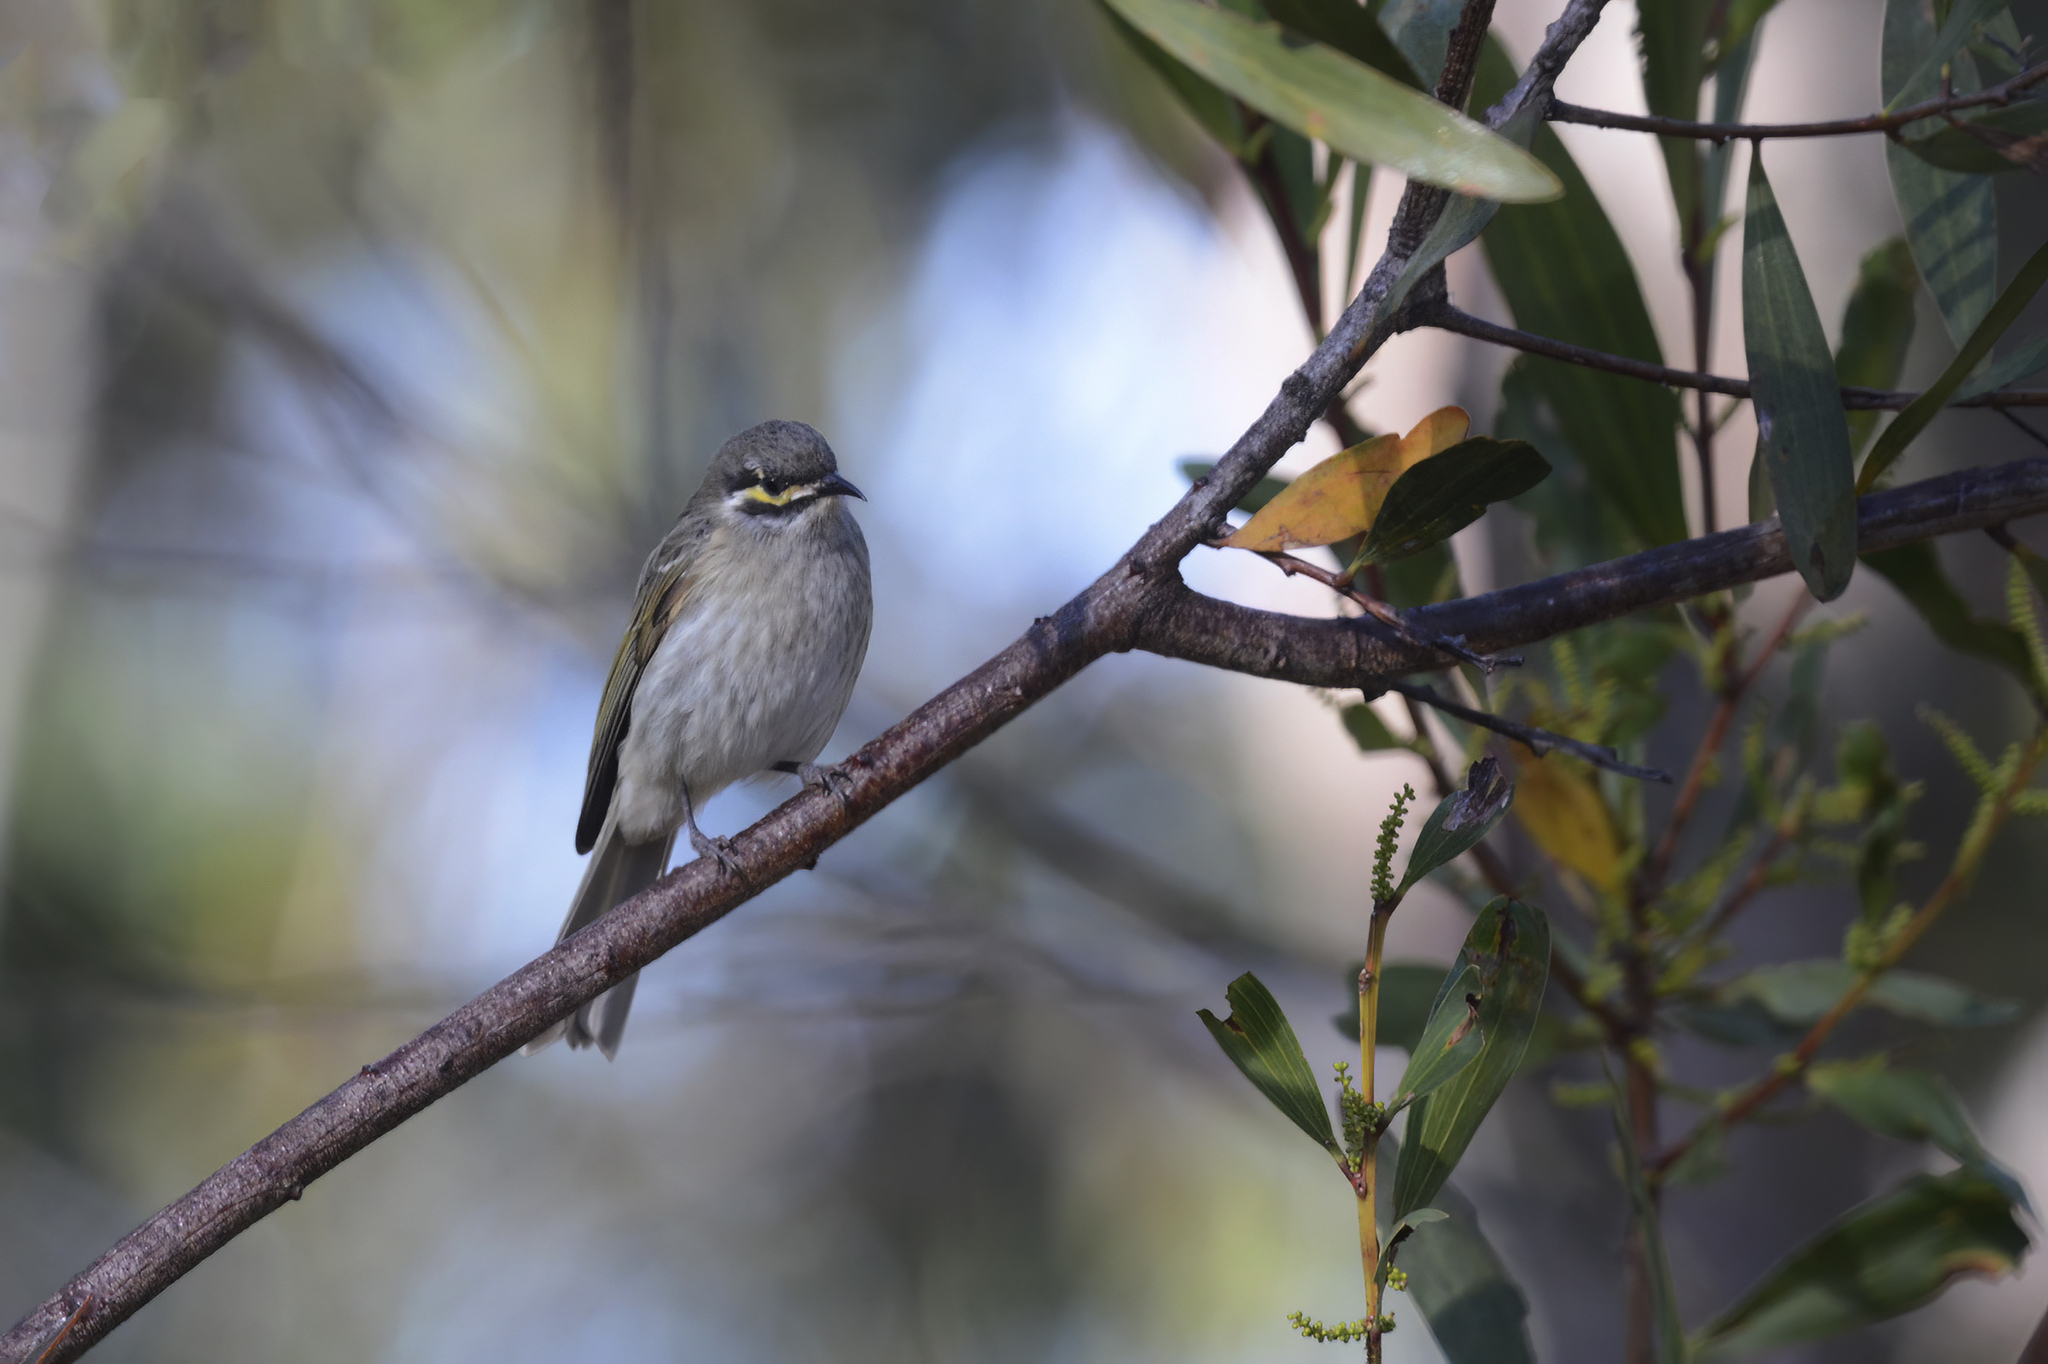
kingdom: Animalia
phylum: Chordata
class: Aves
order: Passeriformes
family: Meliphagidae
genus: Caligavis
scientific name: Caligavis chrysops
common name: Yellow-faced honeyeater
